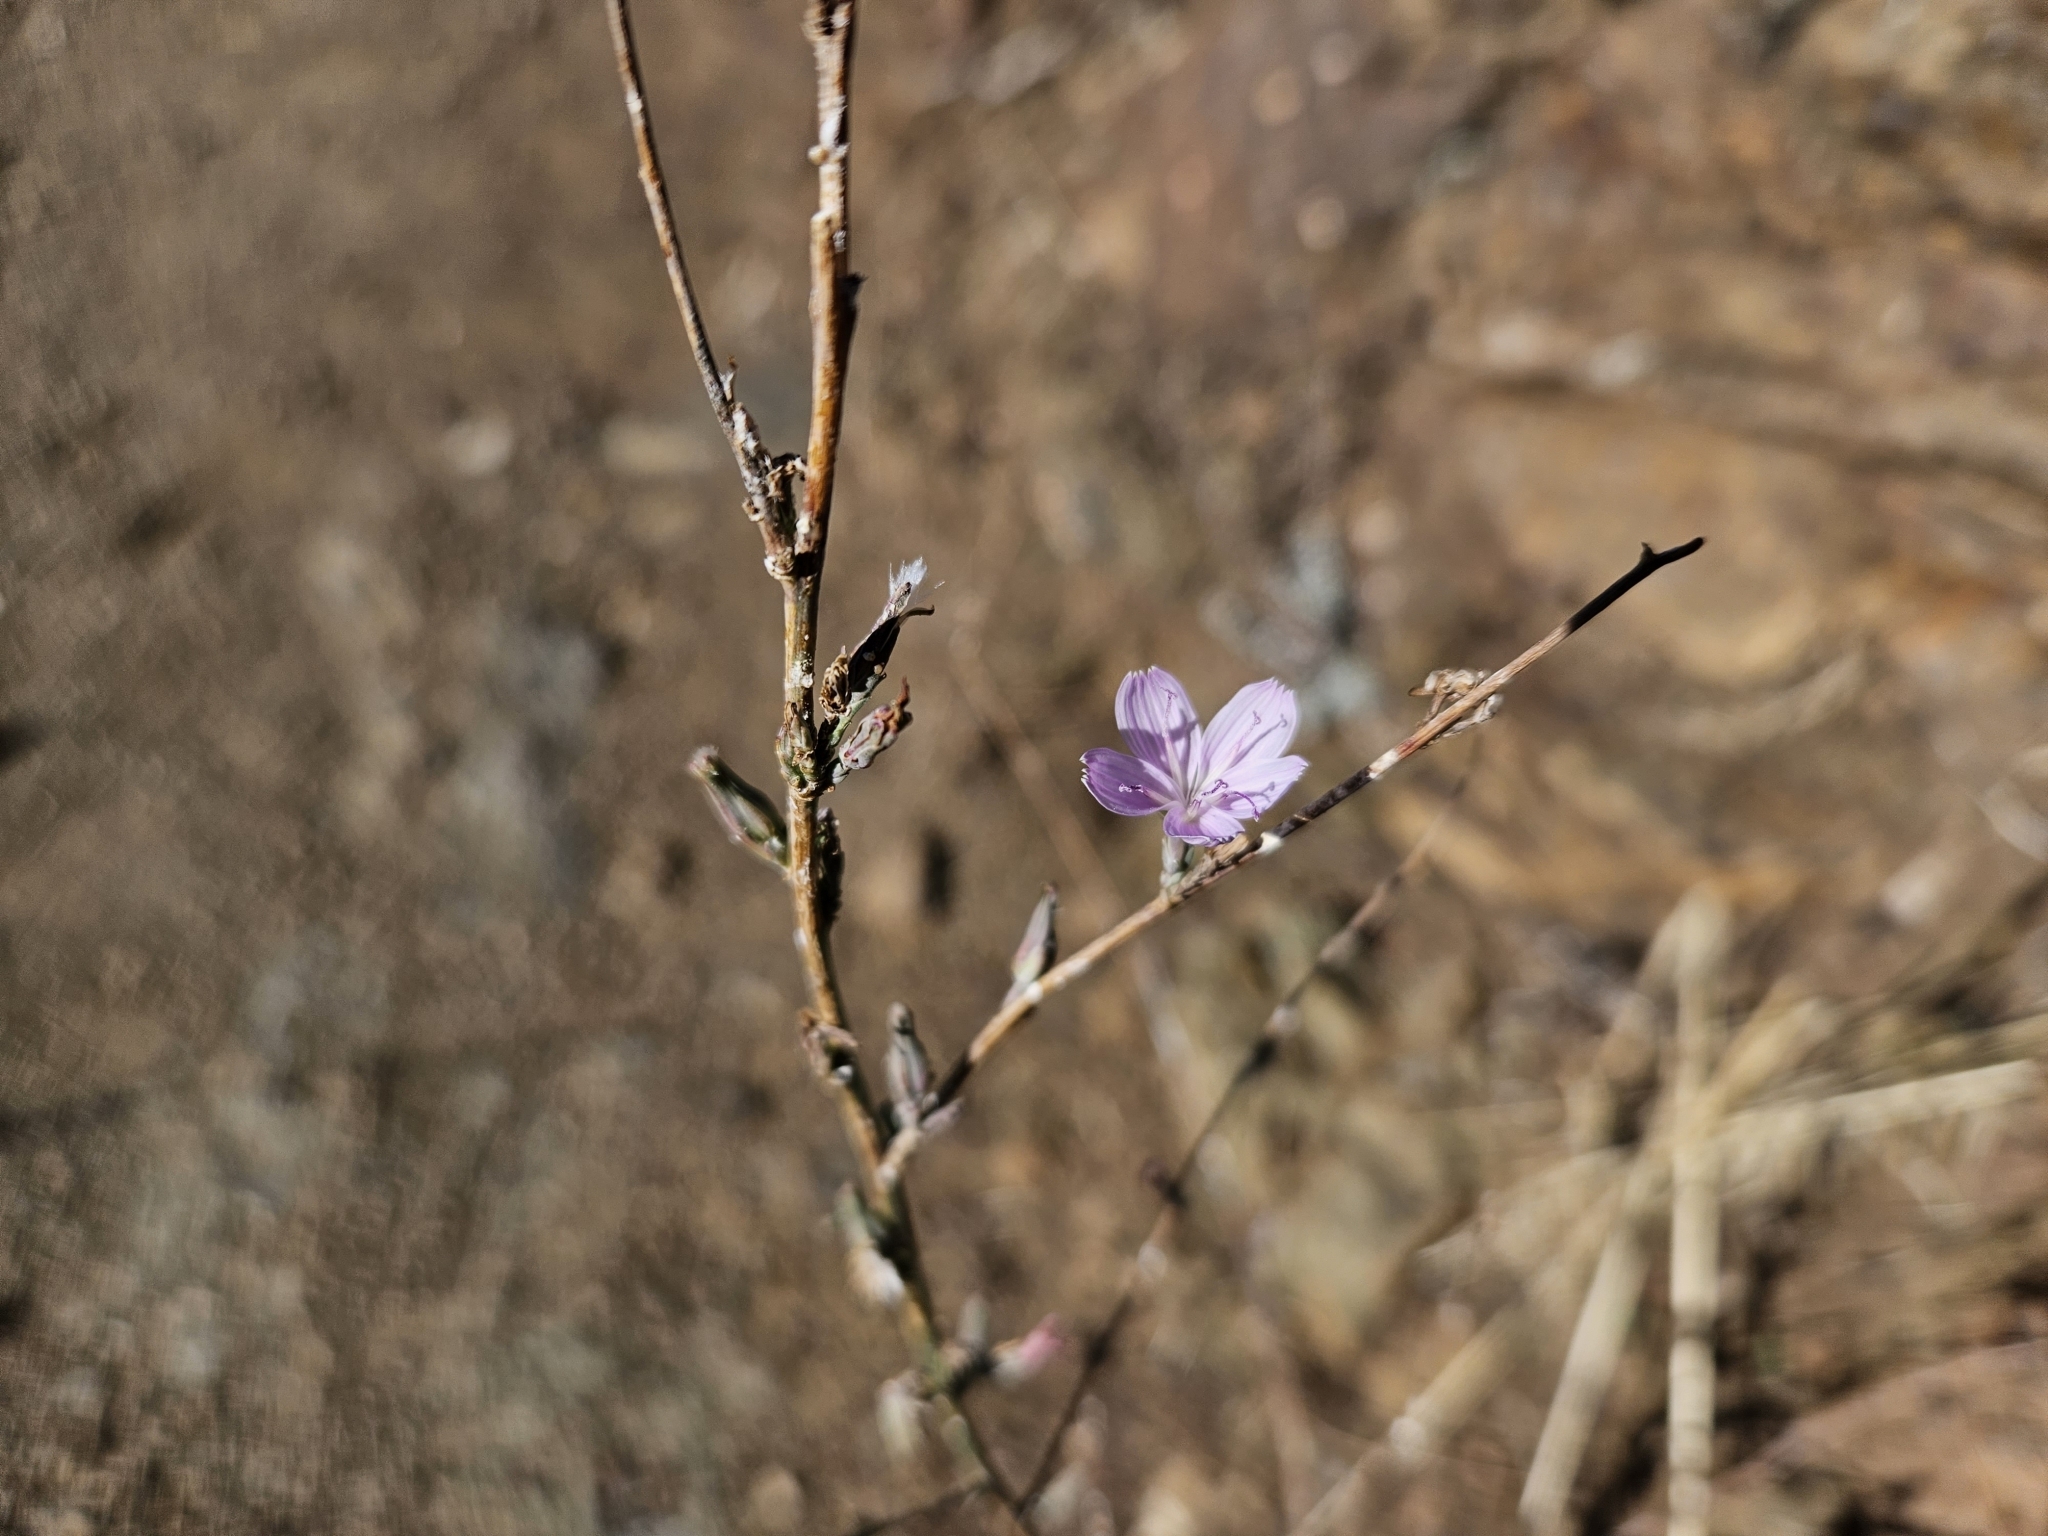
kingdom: Plantae
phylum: Tracheophyta
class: Magnoliopsida
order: Asterales
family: Asteraceae
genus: Stephanomeria
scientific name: Stephanomeria virgata
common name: Virgate wirelettuce
